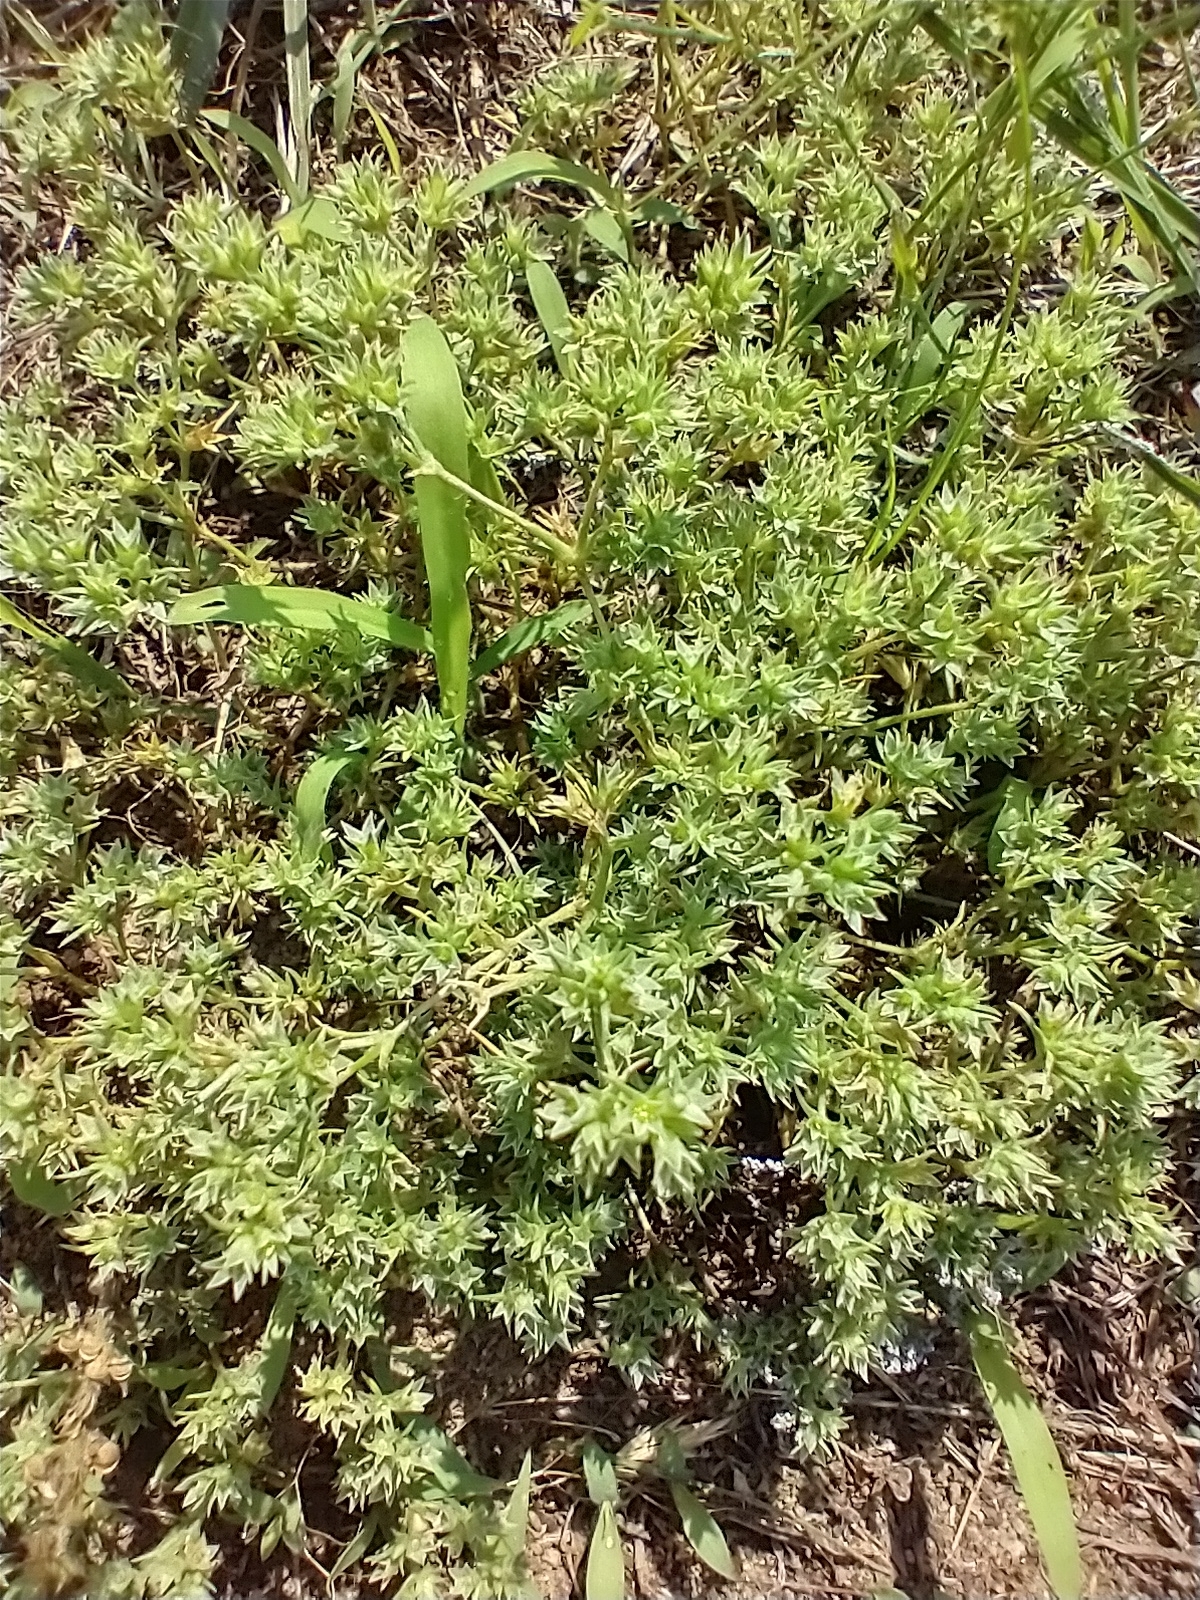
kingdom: Plantae
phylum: Tracheophyta
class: Magnoliopsida
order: Caryophyllales
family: Caryophyllaceae
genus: Scleranthus
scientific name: Scleranthus annuus
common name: Annual knawel
